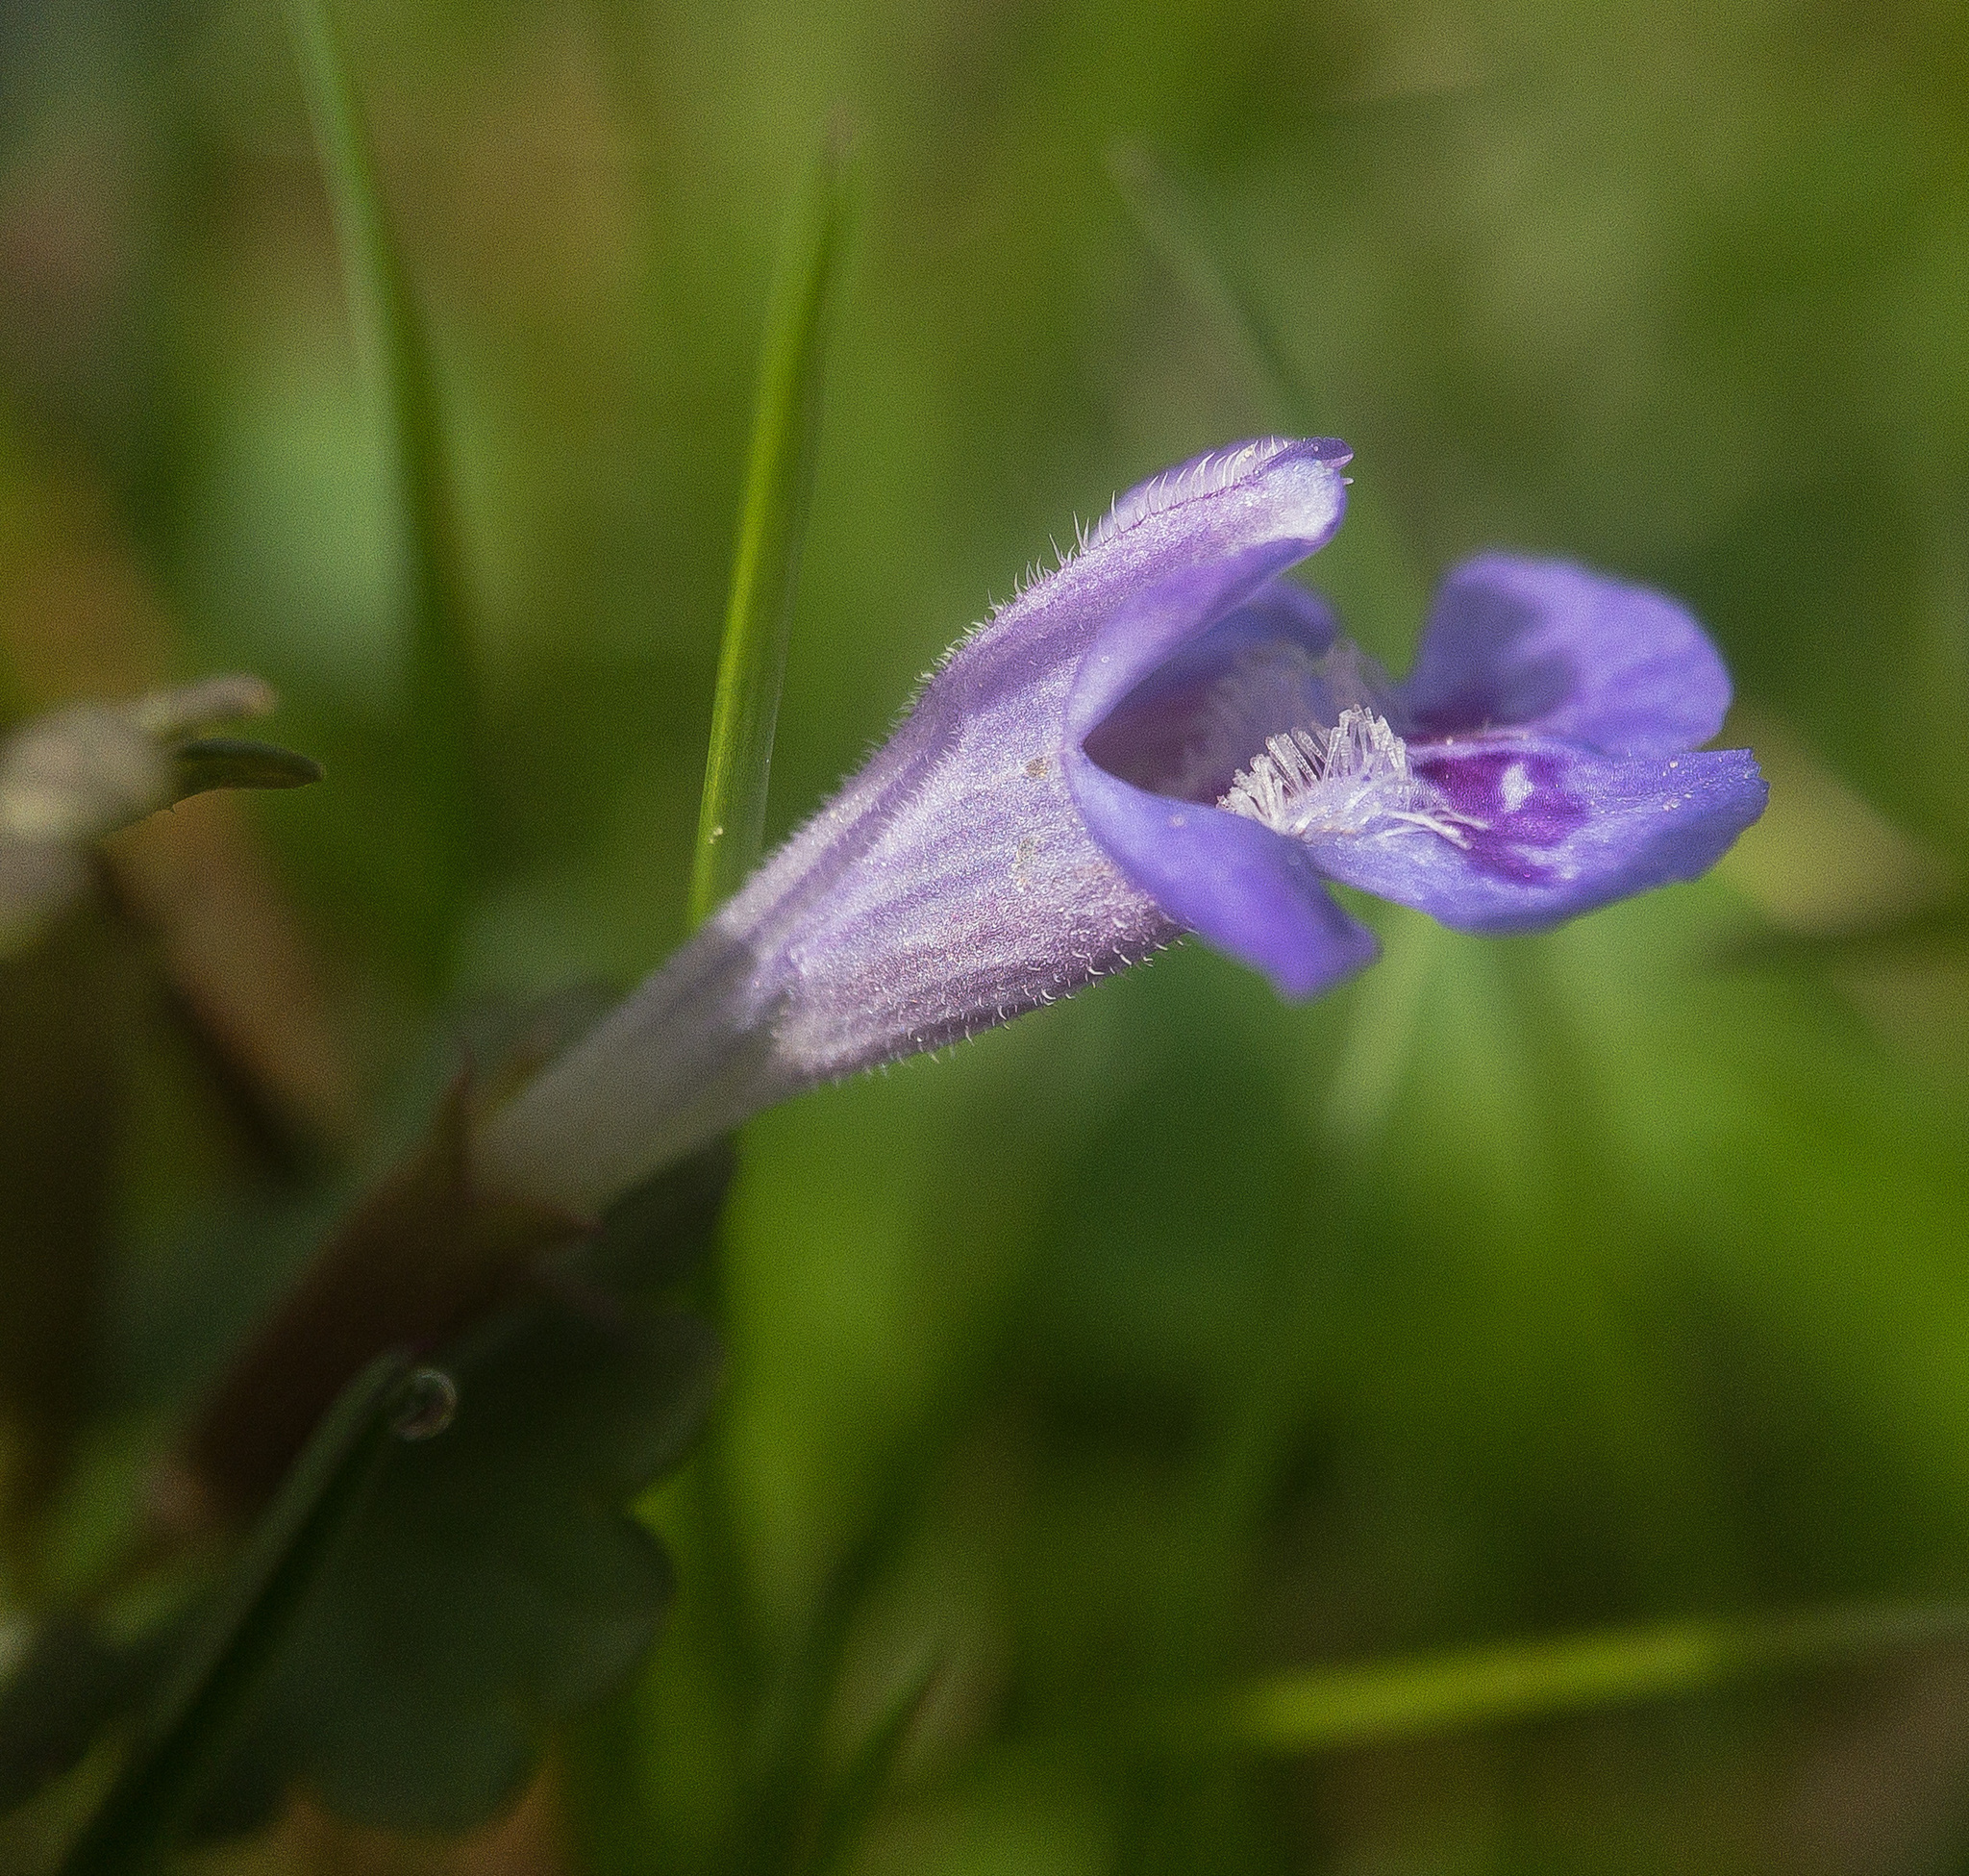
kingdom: Plantae
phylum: Tracheophyta
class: Magnoliopsida
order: Lamiales
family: Lamiaceae
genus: Glechoma
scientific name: Glechoma hederacea
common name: Ground ivy
